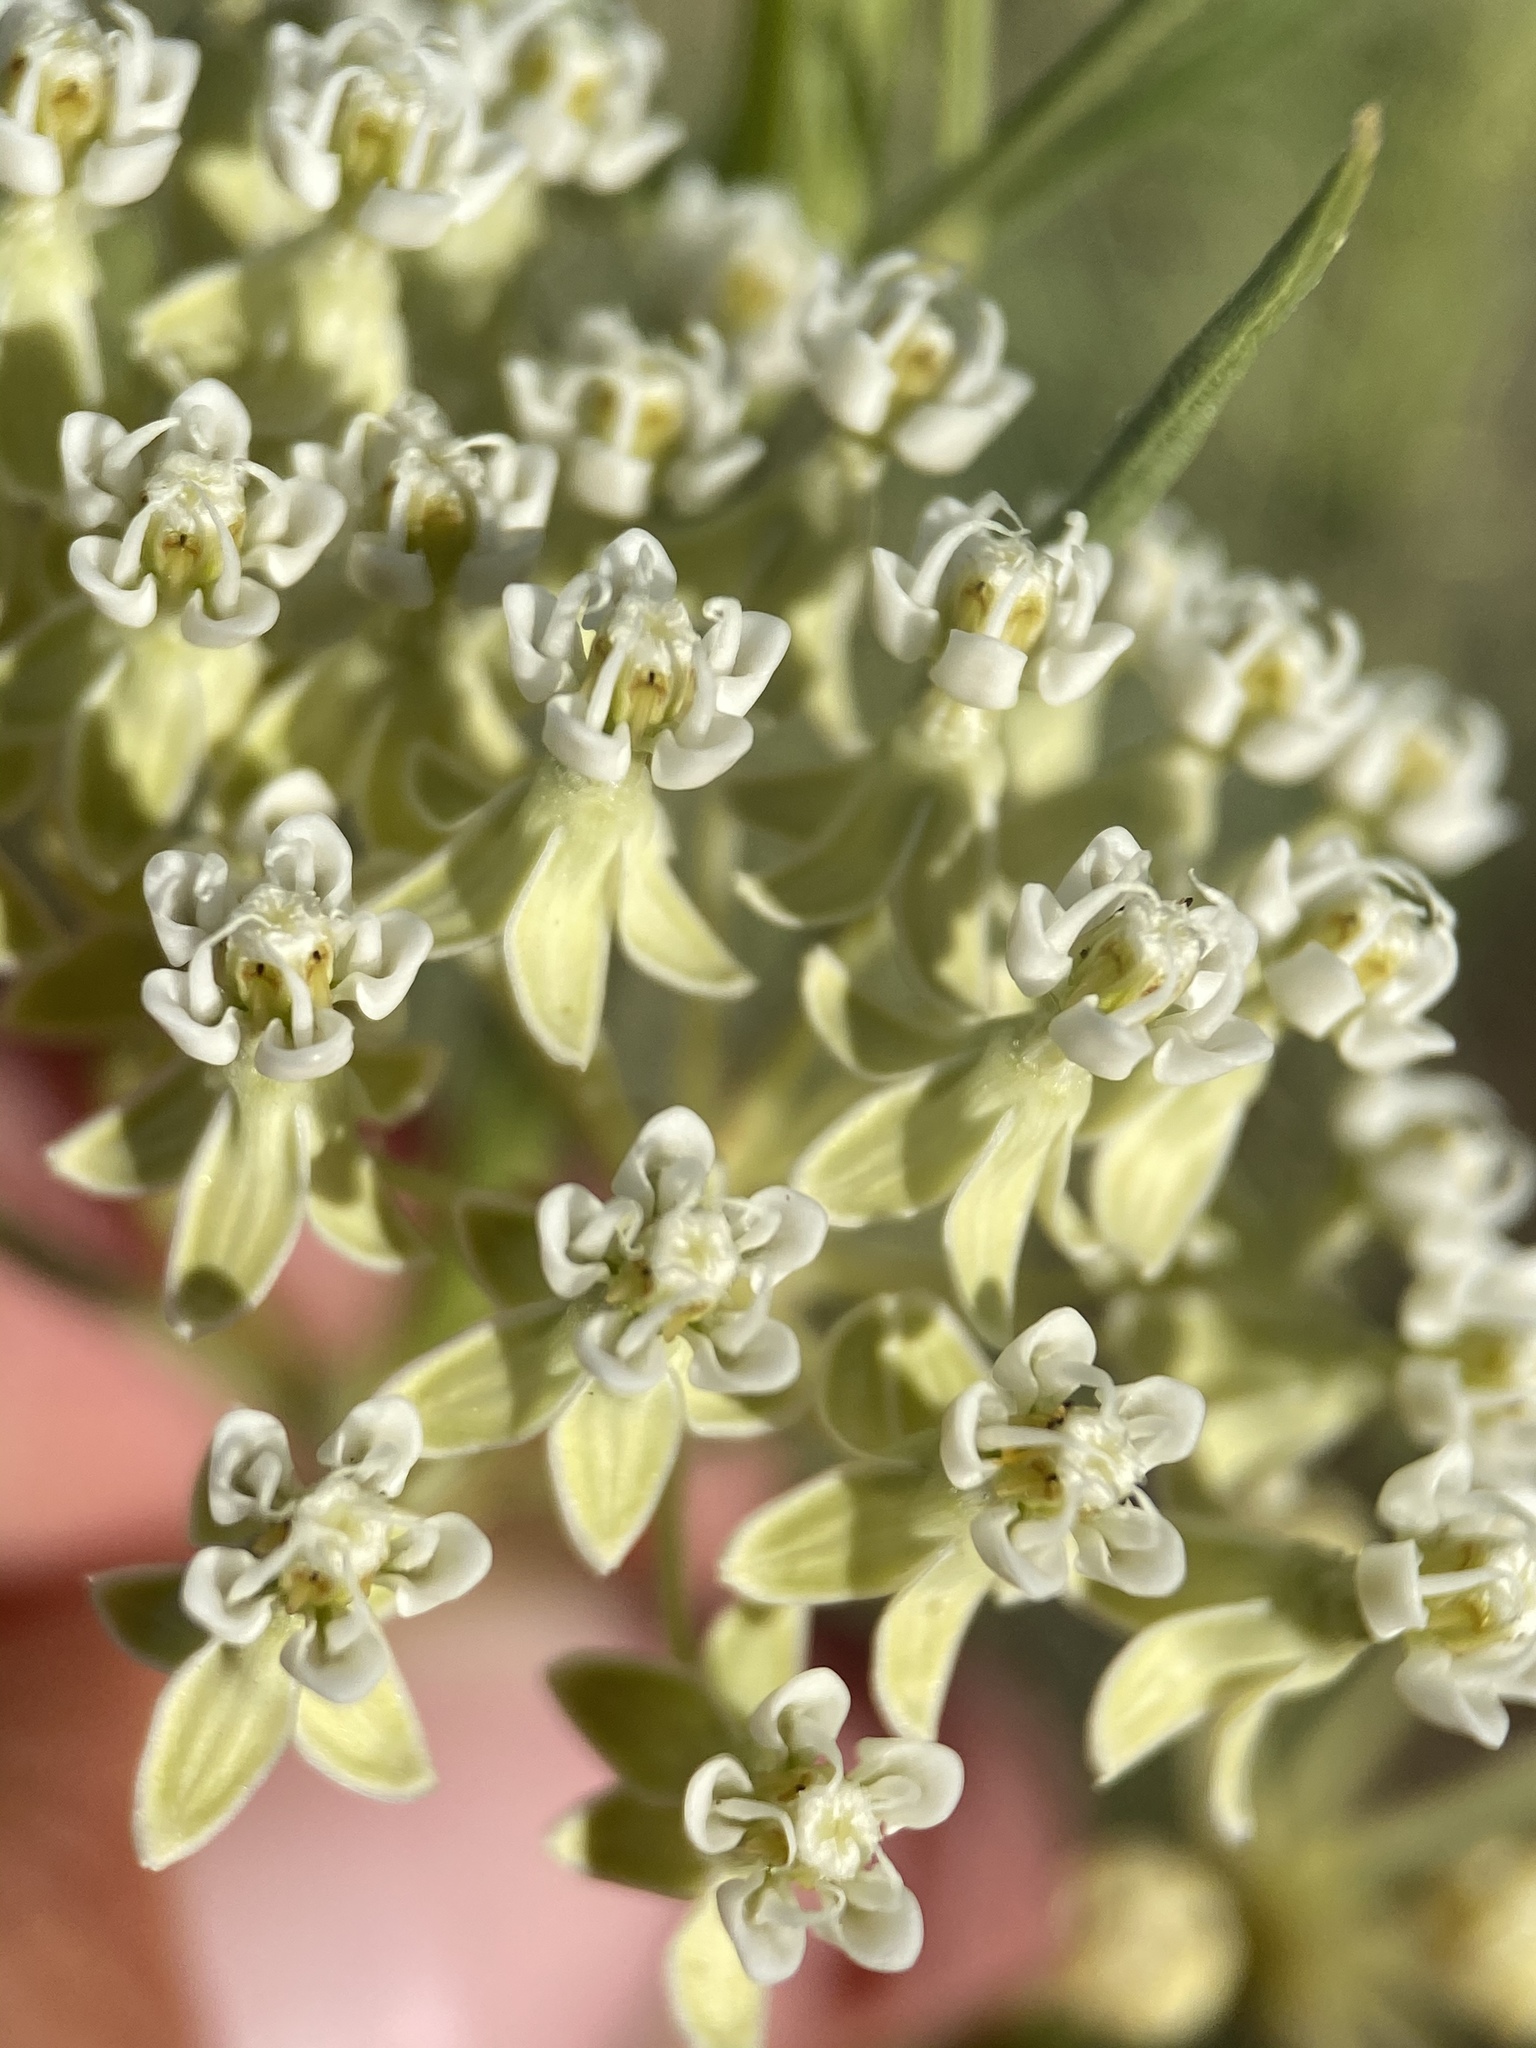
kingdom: Plantae
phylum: Tracheophyta
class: Magnoliopsida
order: Gentianales
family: Apocynaceae
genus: Asclepias
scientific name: Asclepias subverticillata
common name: Horsetail milkweed
